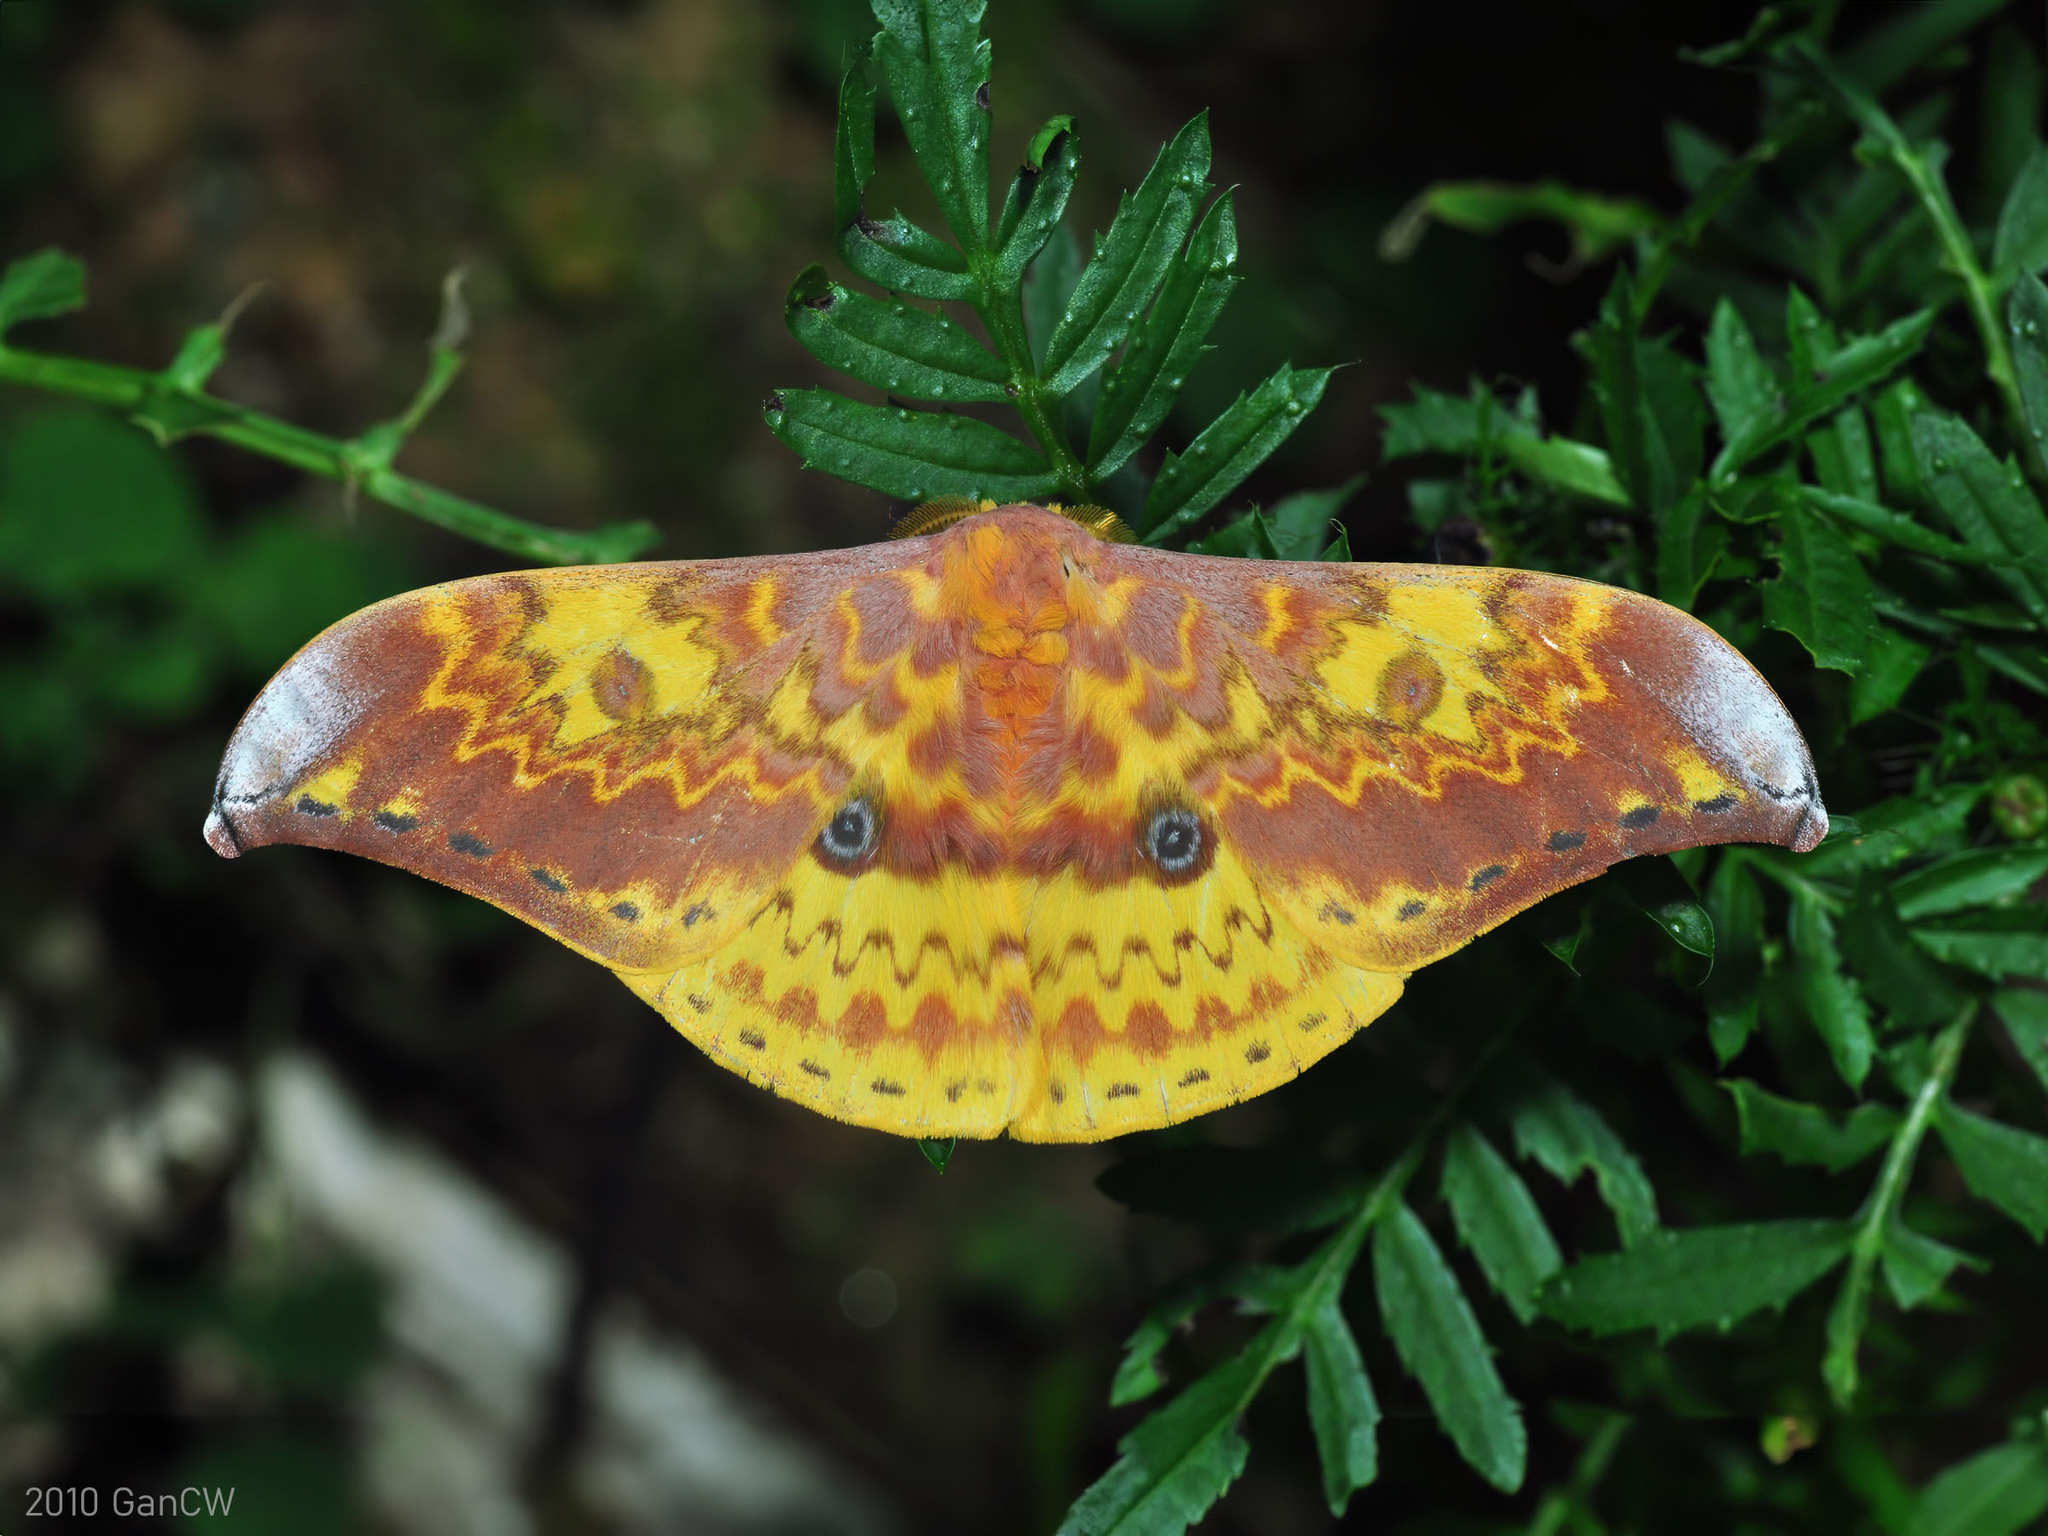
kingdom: Animalia
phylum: Arthropoda
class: Insecta
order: Lepidoptera
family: Saturniidae
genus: Lemaireia
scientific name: Lemaireia loepoides
